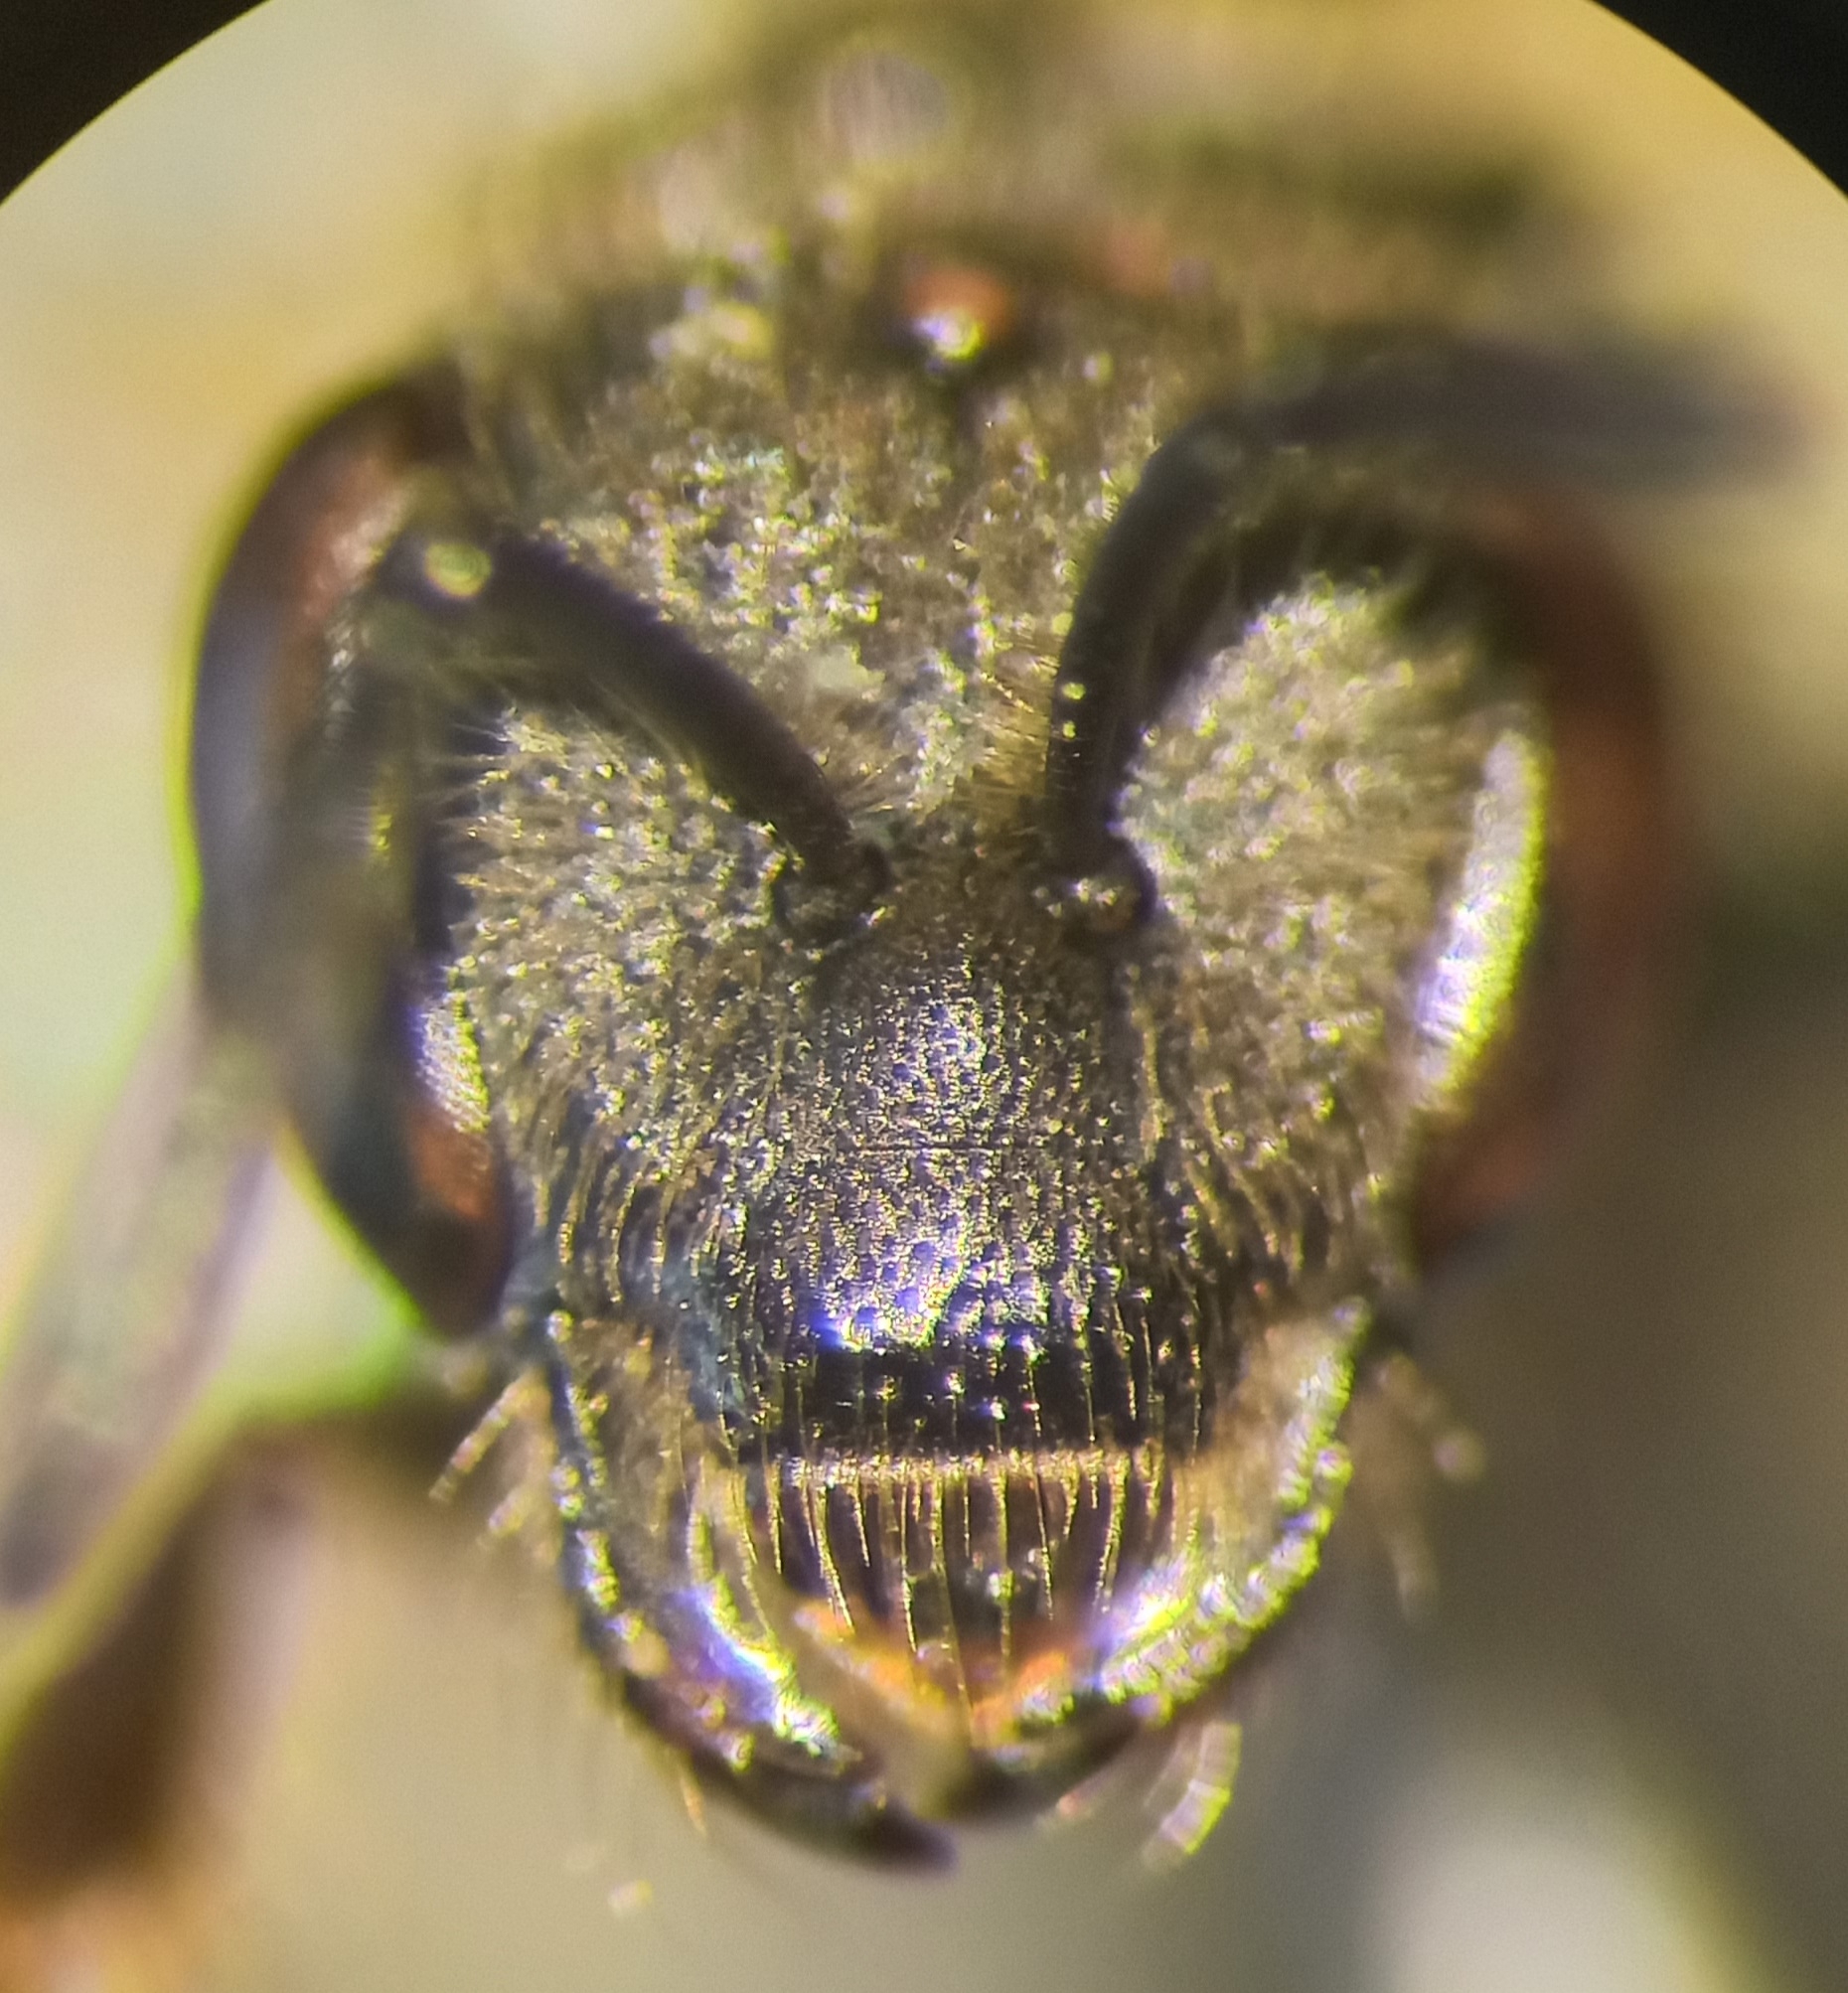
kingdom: Animalia
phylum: Arthropoda
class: Insecta
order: Hymenoptera
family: Halictidae
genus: Lasioglossum
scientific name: Lasioglossum malachurum
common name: Sharp-collared furrow bee
